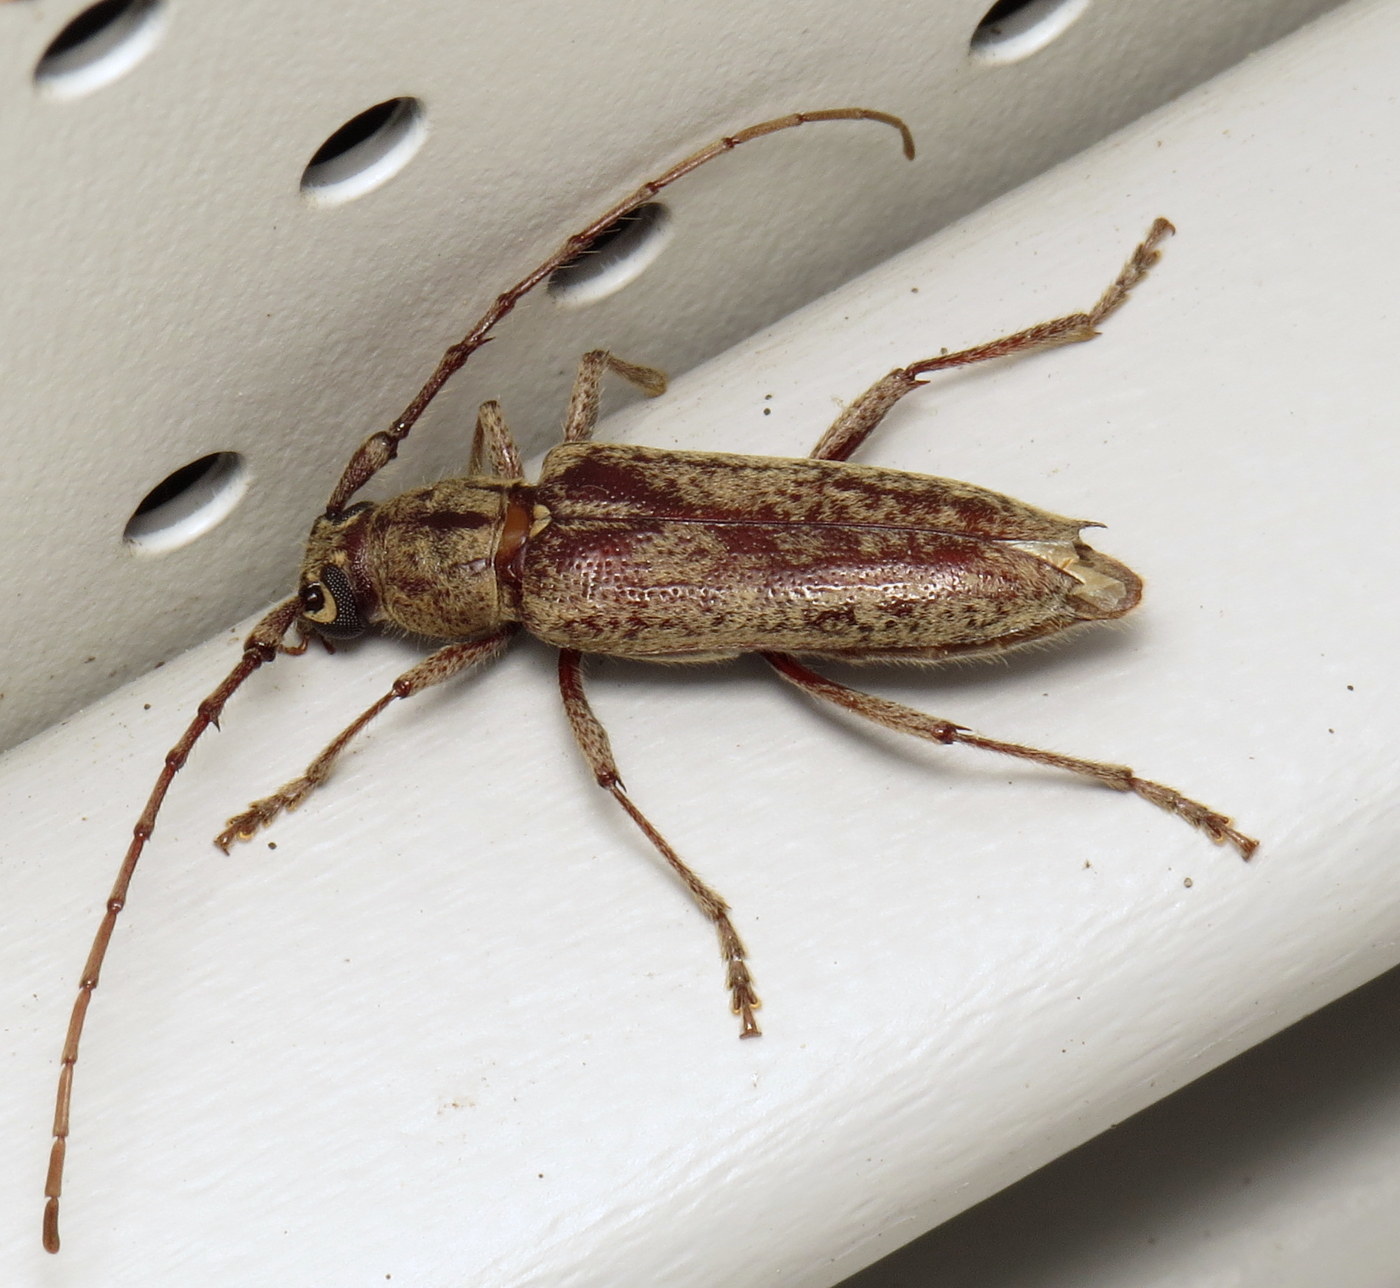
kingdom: Animalia
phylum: Arthropoda
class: Insecta
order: Coleoptera
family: Cerambycidae
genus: Elaphidion
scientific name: Elaphidion mucronatum
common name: Spined oak borer
